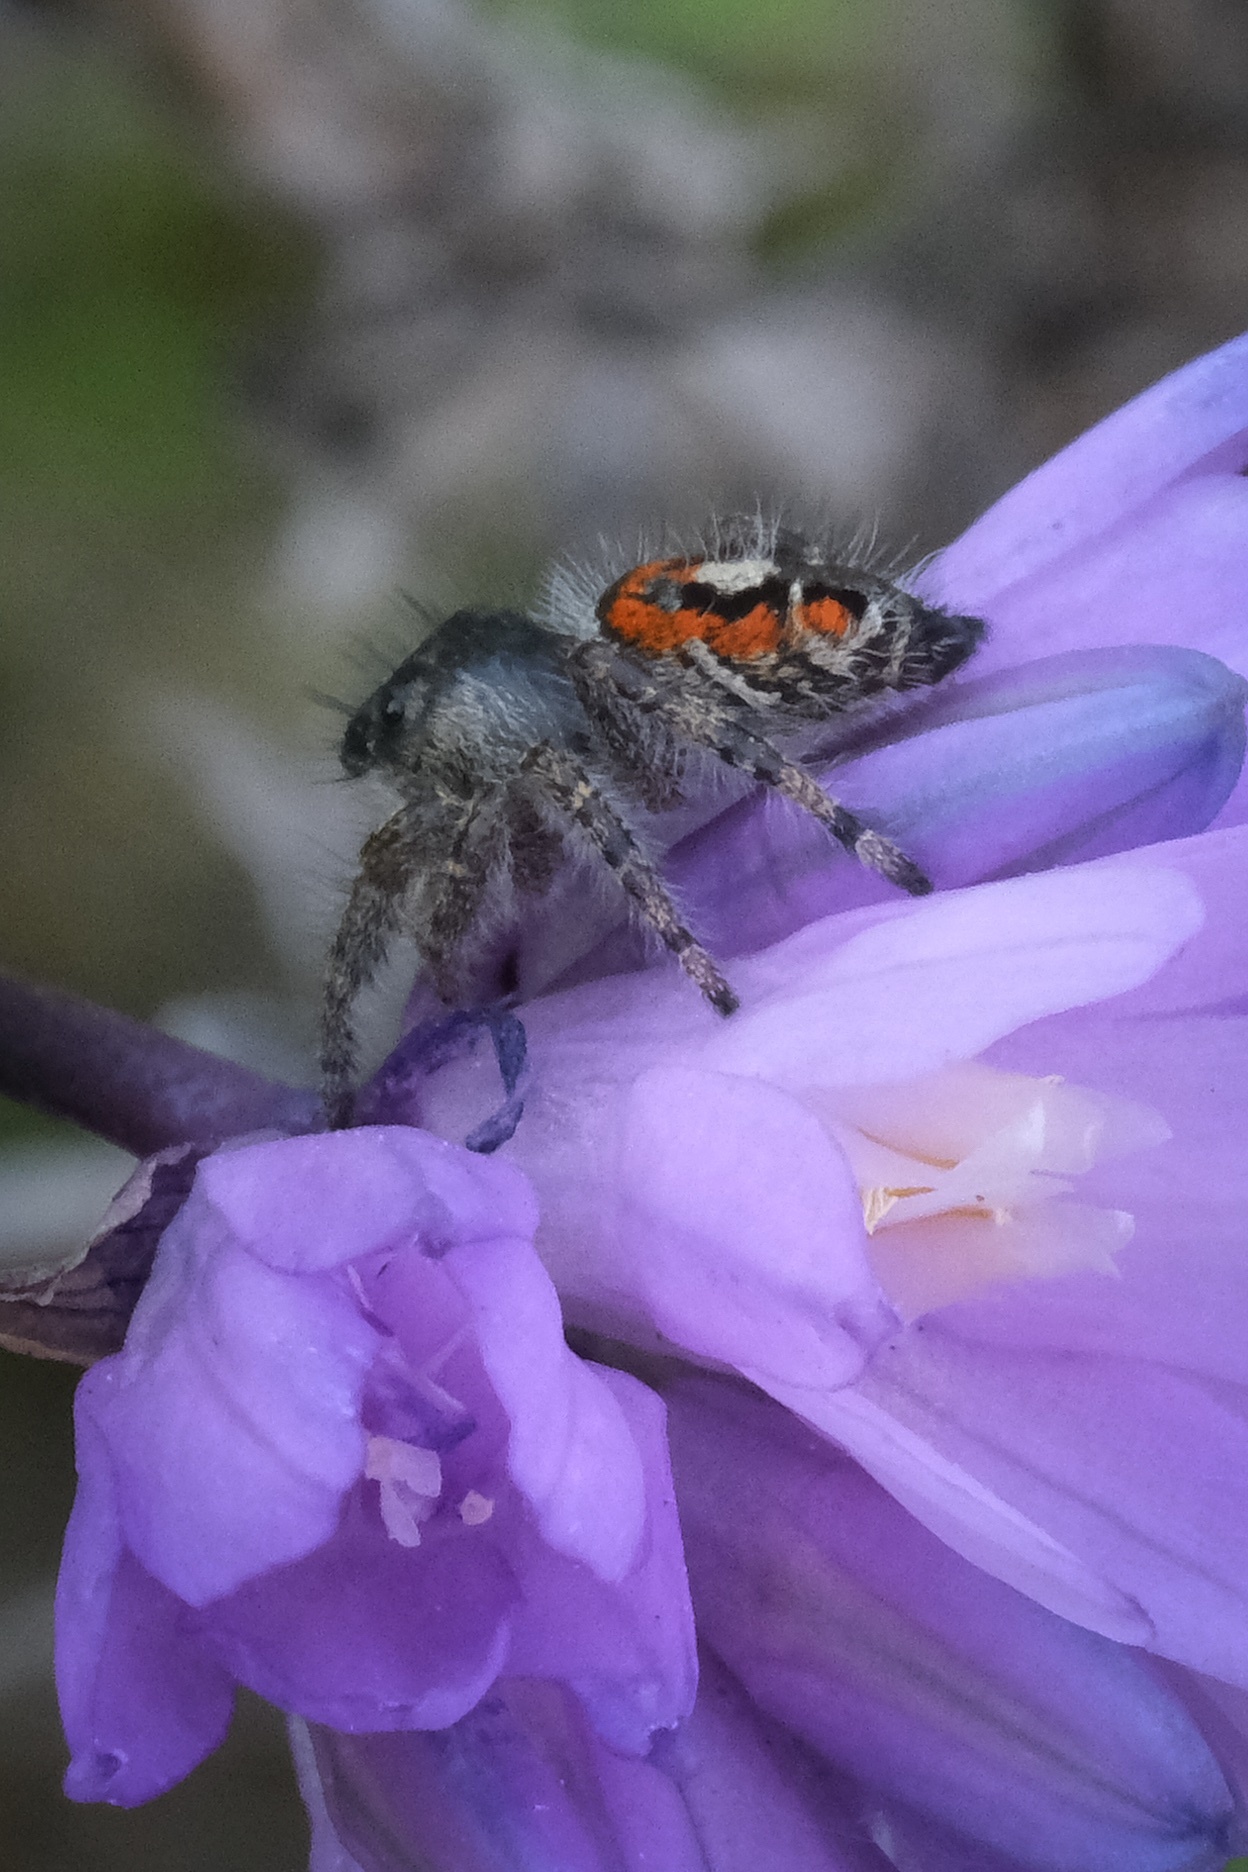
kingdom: Animalia
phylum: Arthropoda
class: Arachnida
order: Araneae
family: Salticidae
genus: Phidippus
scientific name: Phidippus phoenix
